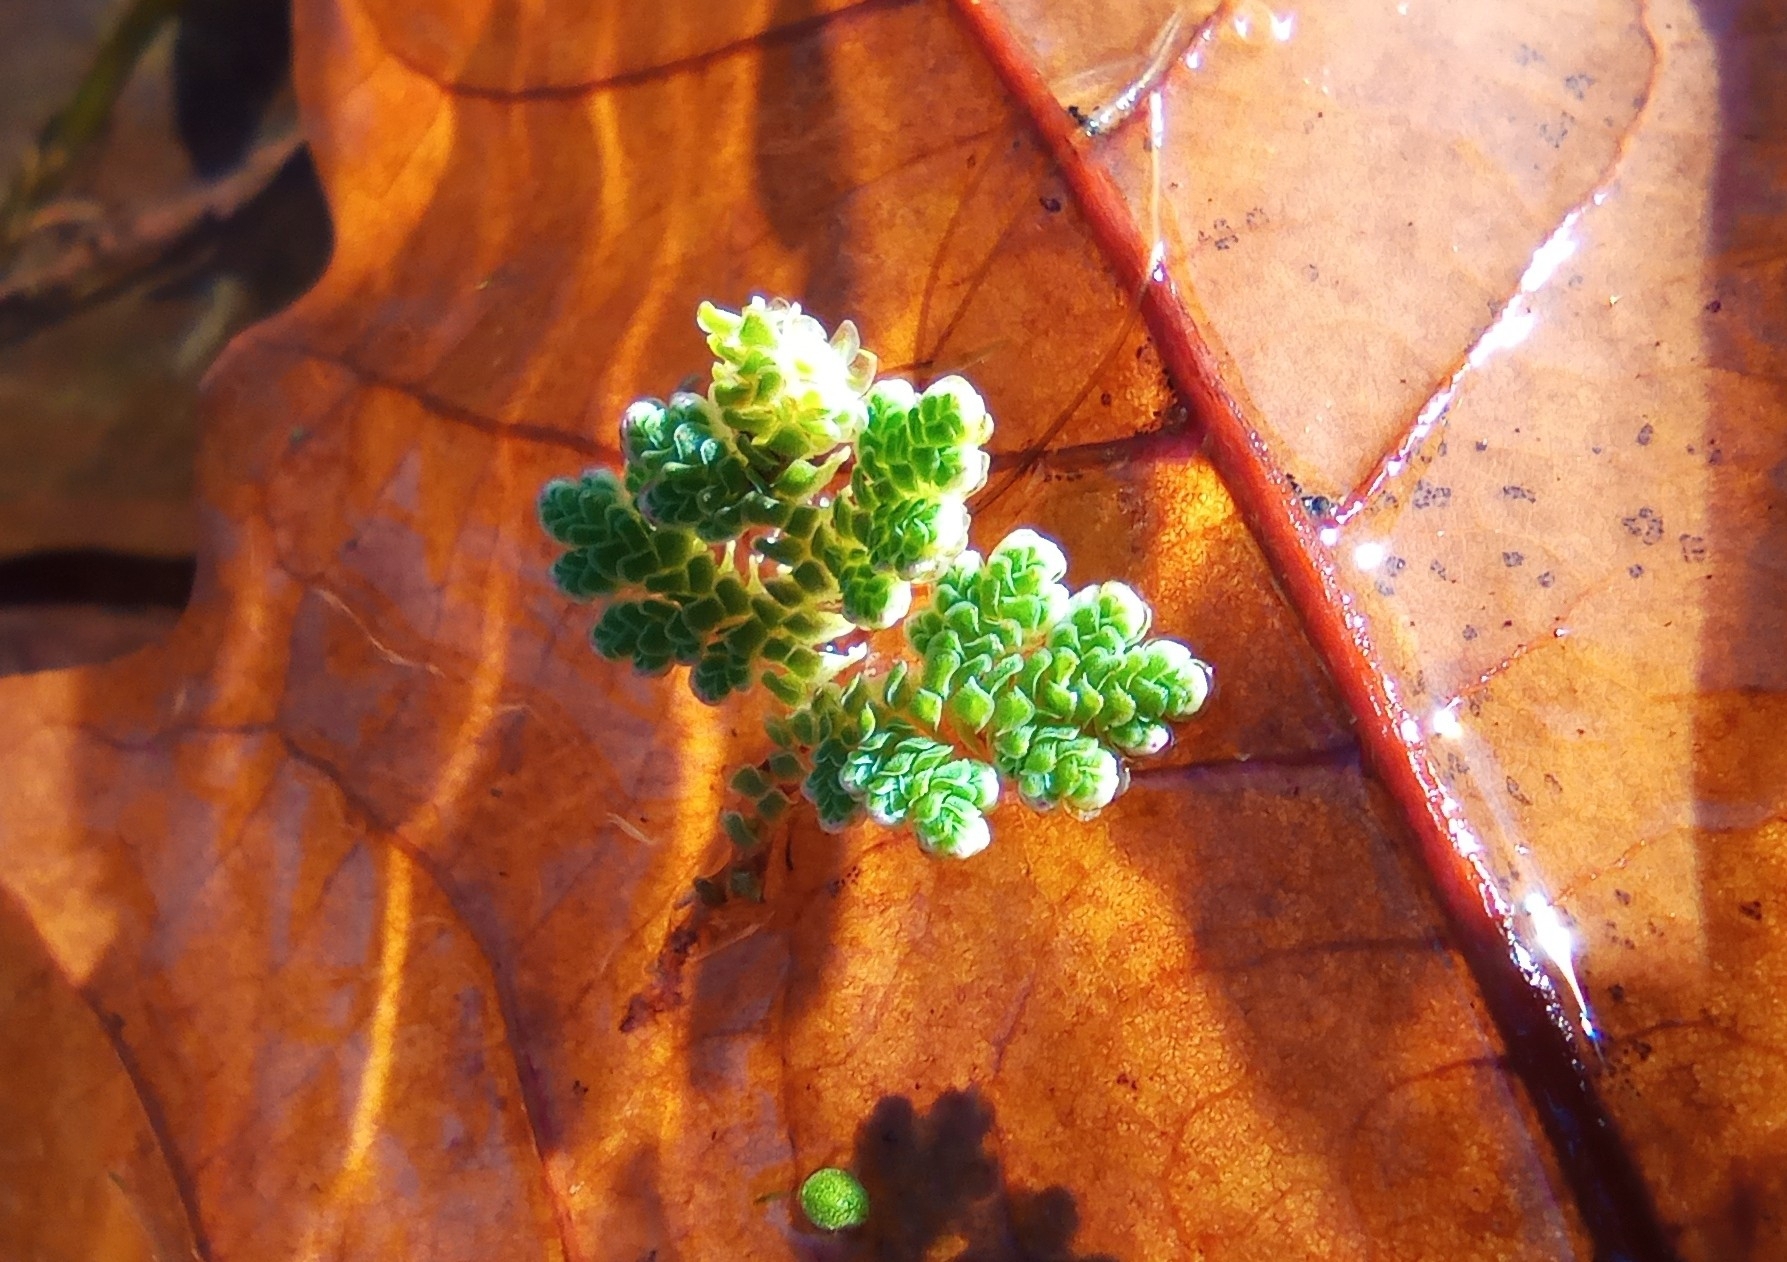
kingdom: Plantae
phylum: Tracheophyta
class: Polypodiopsida
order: Salviniales
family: Salviniaceae
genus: Azolla
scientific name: Azolla filiculoides
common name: Water fern
